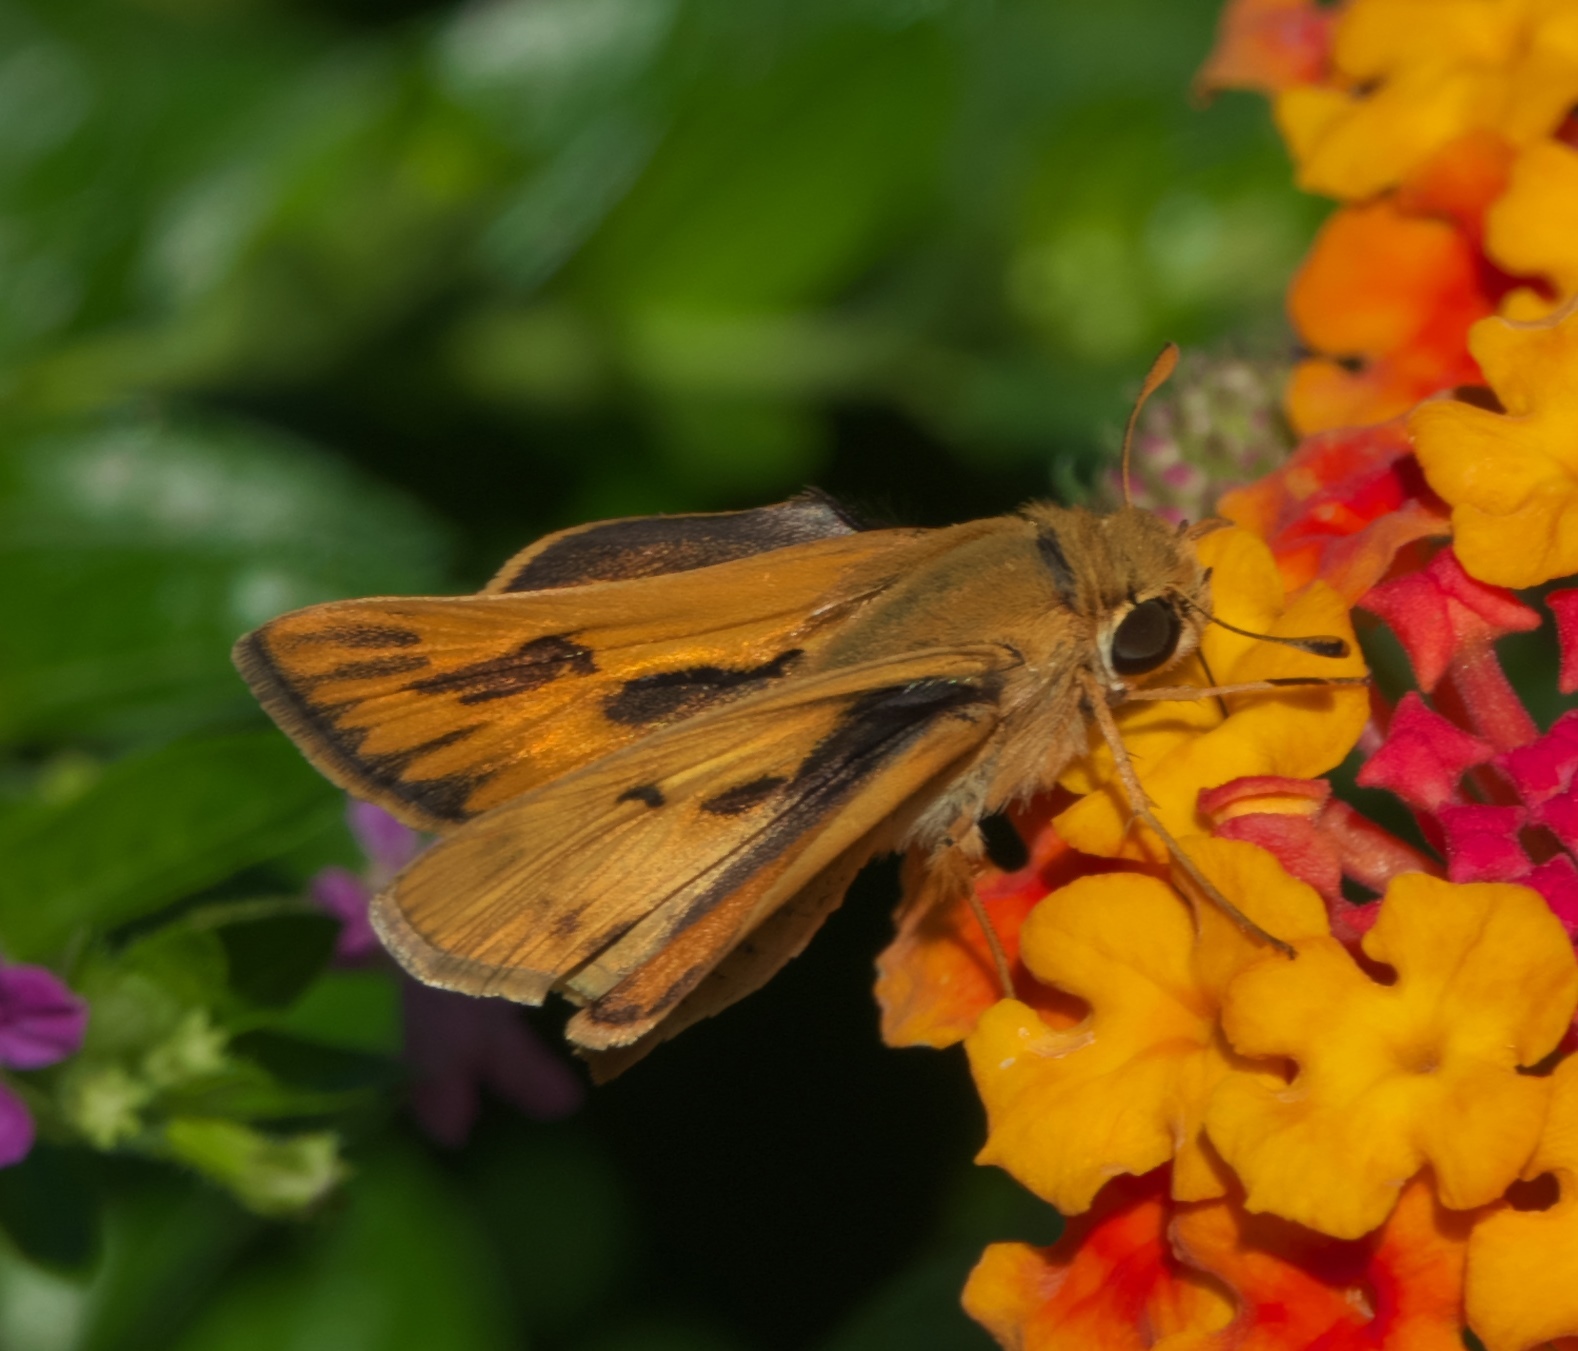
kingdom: Animalia
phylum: Arthropoda
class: Insecta
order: Lepidoptera
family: Hesperiidae
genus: Hylephila
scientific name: Hylephila phyleus
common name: Fiery skipper
